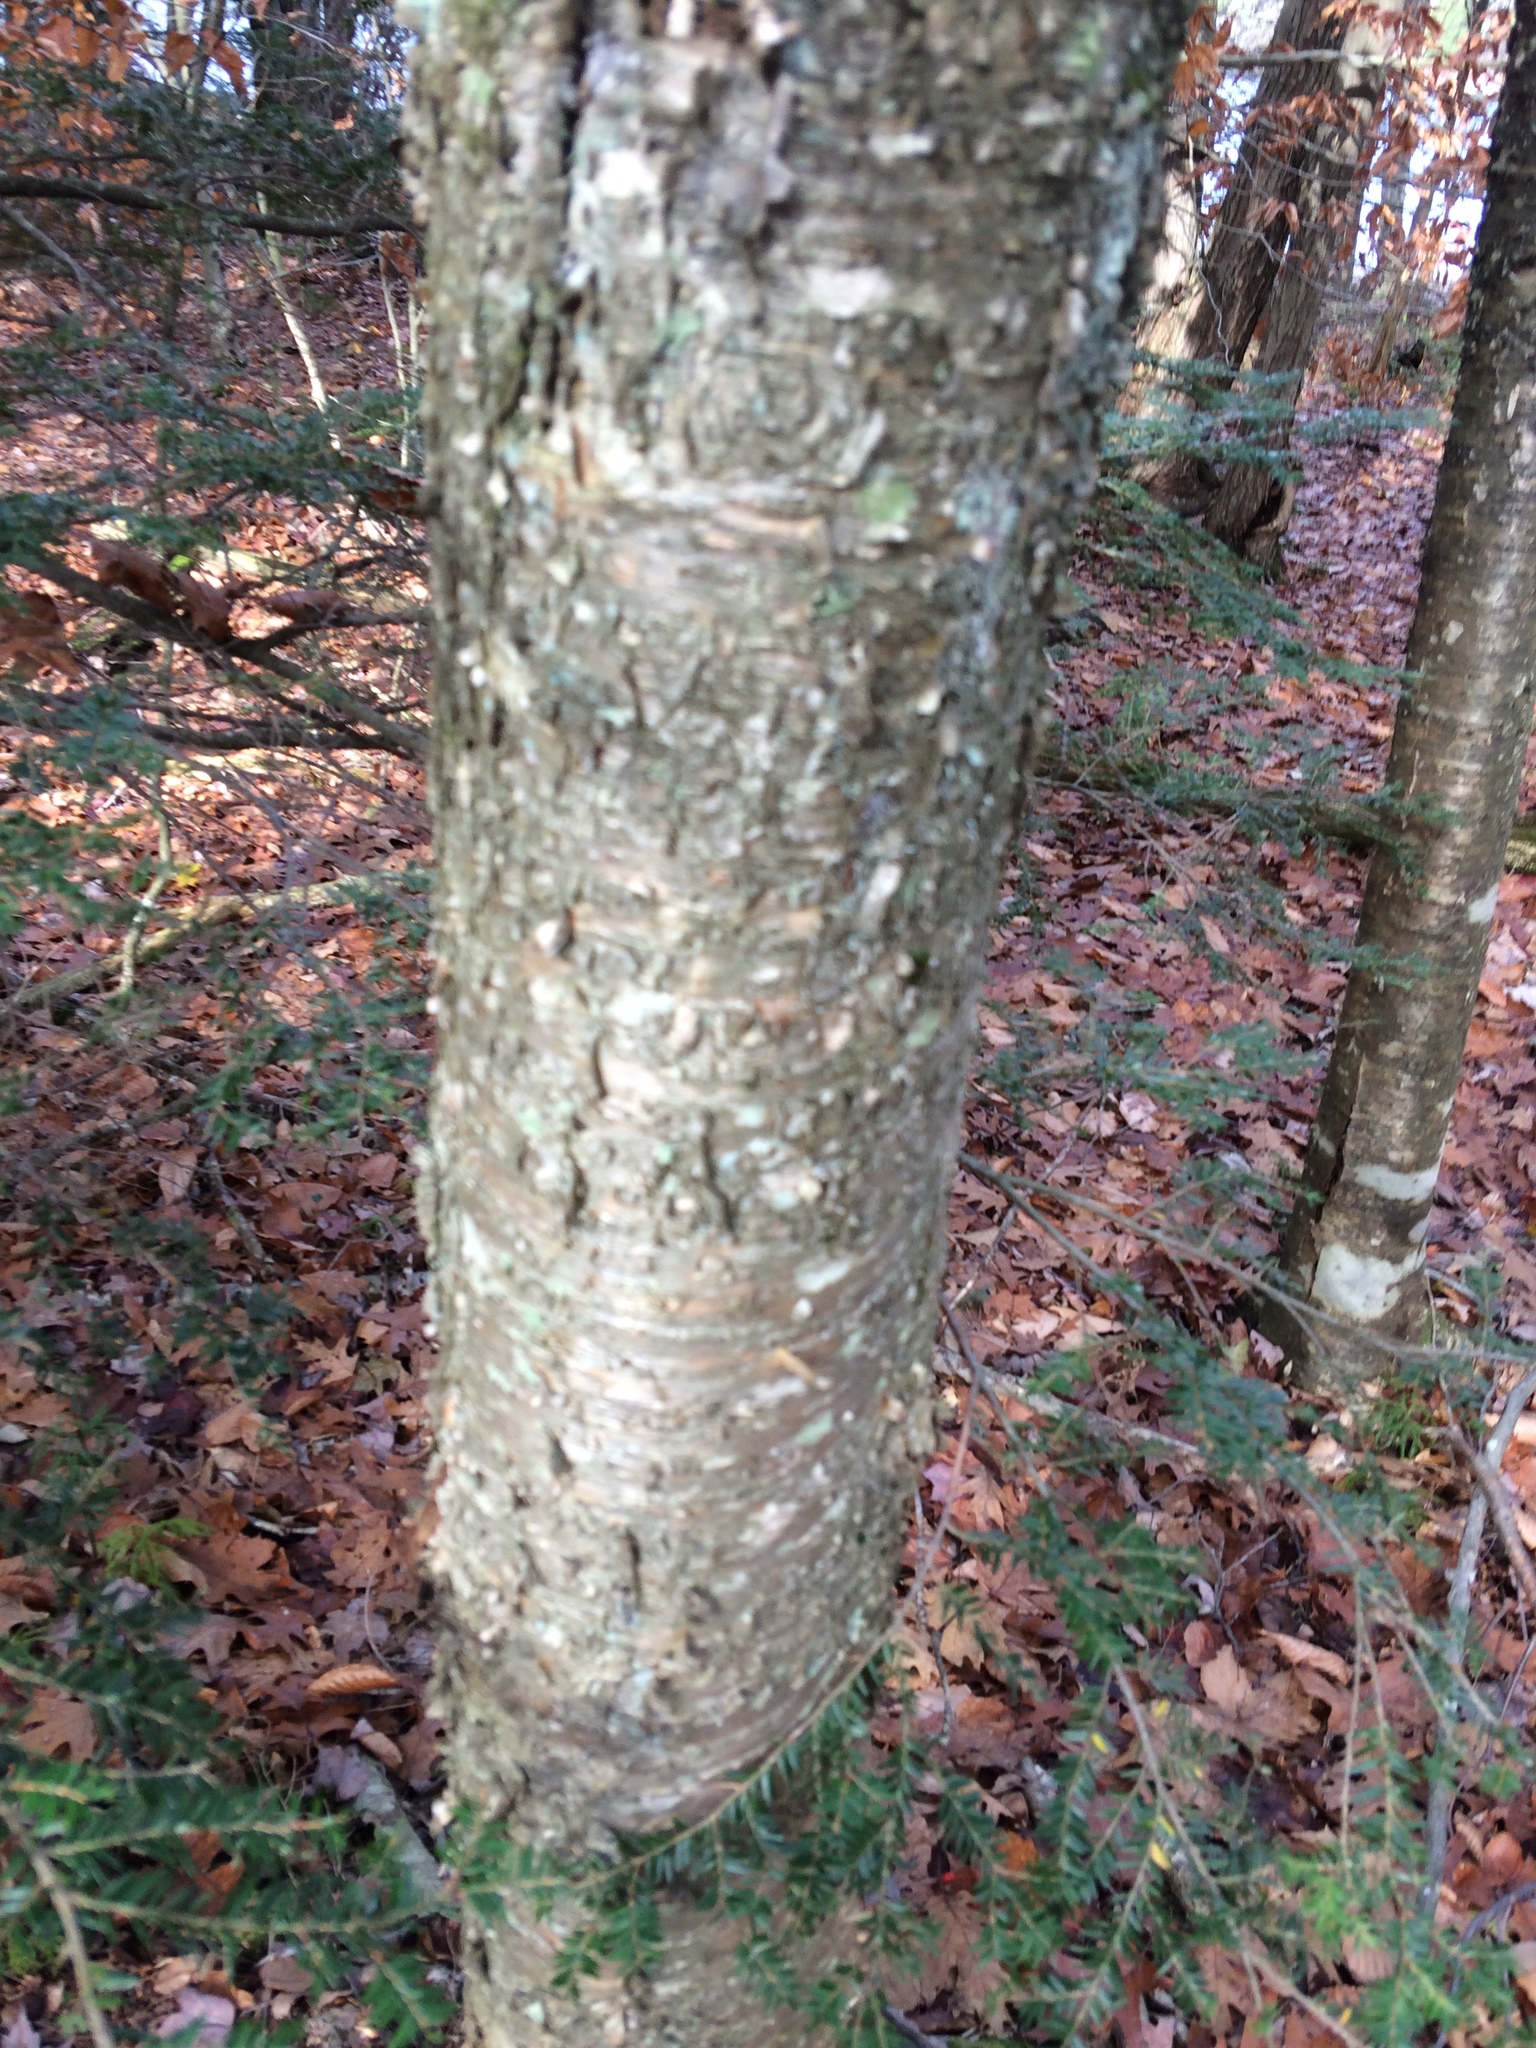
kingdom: Plantae
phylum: Tracheophyta
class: Magnoliopsida
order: Fagales
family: Betulaceae
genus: Betula
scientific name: Betula alleghaniensis
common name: Yellow birch
